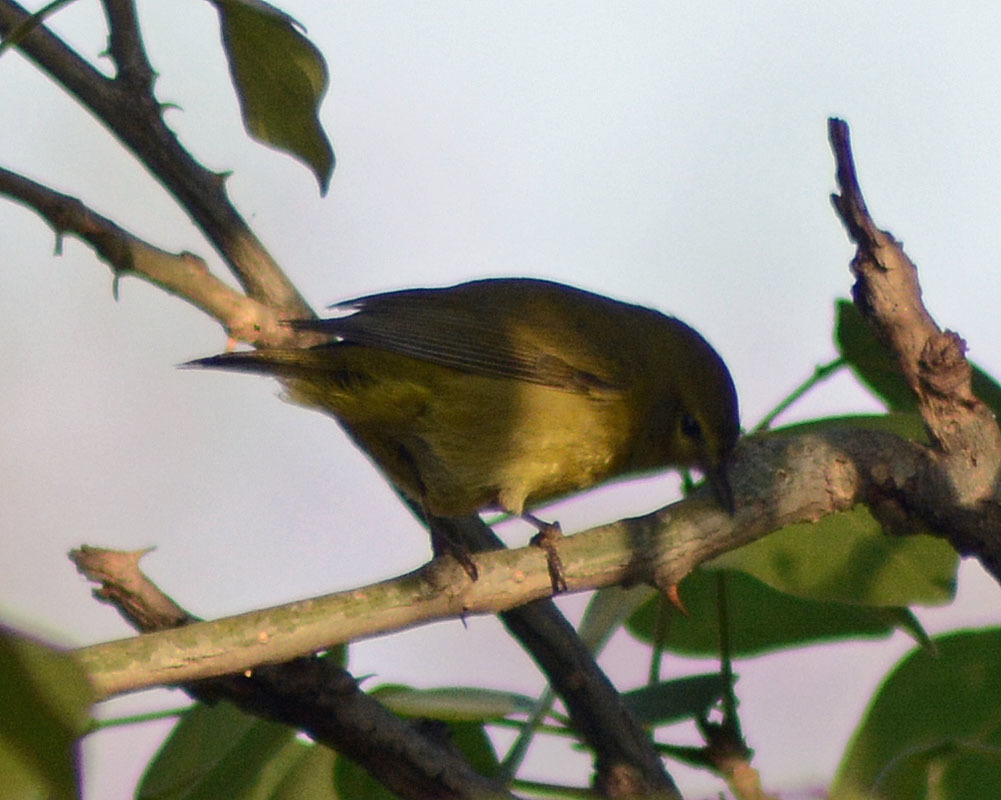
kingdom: Animalia
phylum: Chordata
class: Aves
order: Passeriformes
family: Parulidae
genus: Leiothlypis
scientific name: Leiothlypis celata
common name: Orange-crowned warbler
